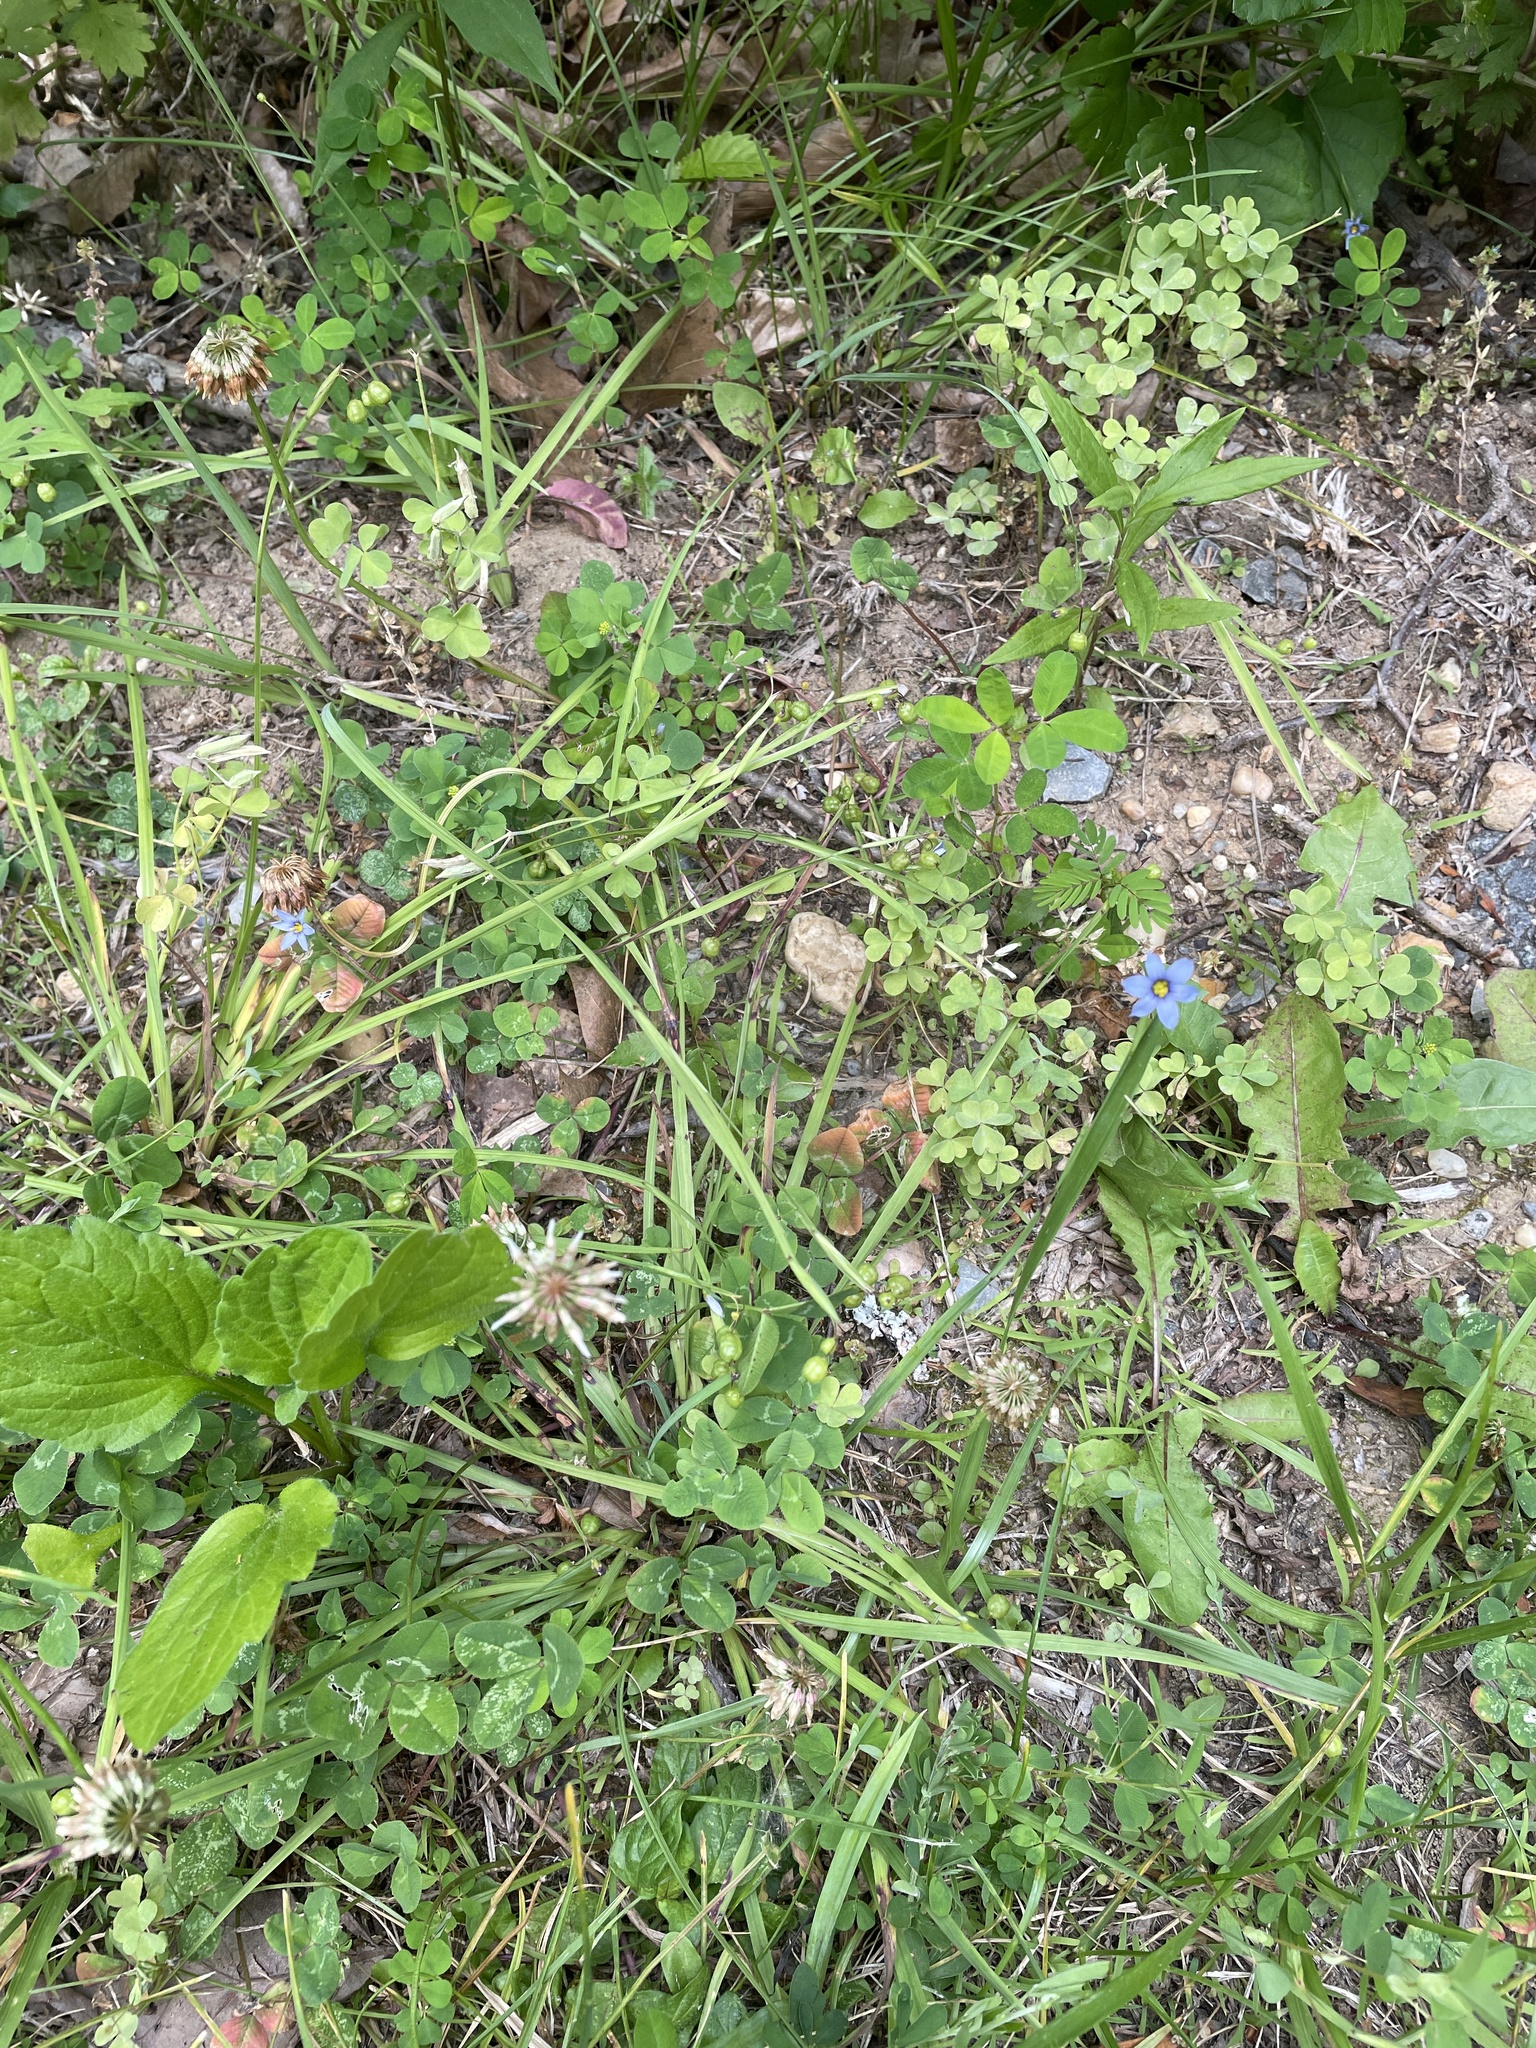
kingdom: Plantae
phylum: Tracheophyta
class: Liliopsida
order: Asparagales
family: Iridaceae
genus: Sisyrinchium
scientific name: Sisyrinchium atlanticum
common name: Eastern blue-eyed-grass
